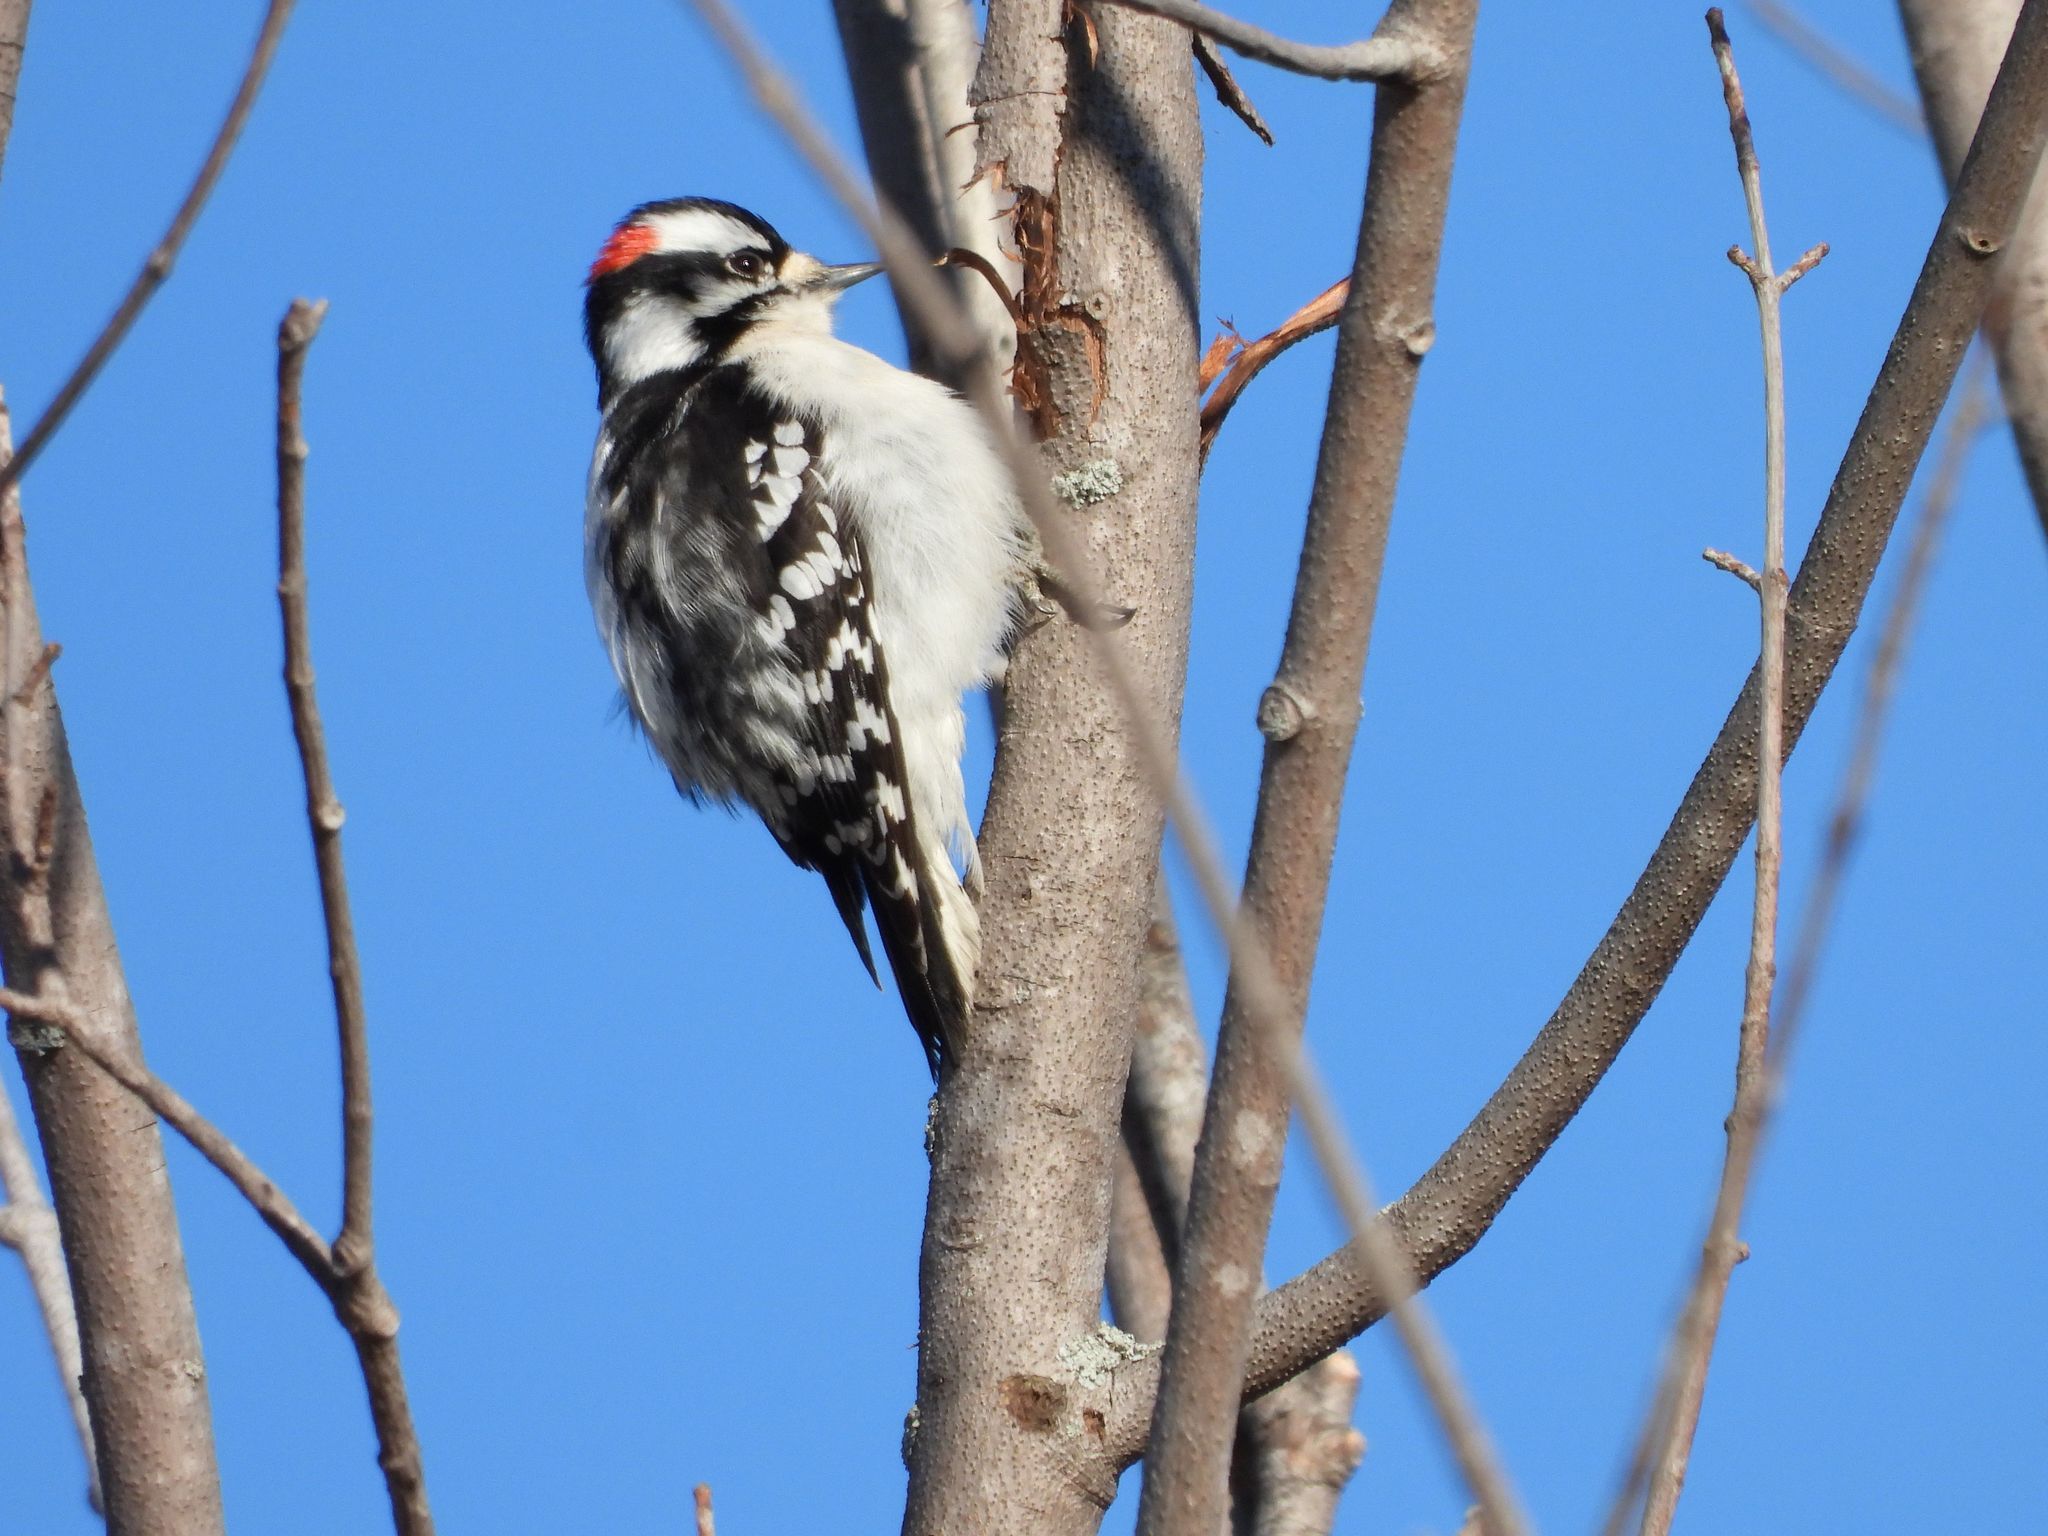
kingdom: Animalia
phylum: Chordata
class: Aves
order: Piciformes
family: Picidae
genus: Dryobates
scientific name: Dryobates pubescens
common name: Downy woodpecker
